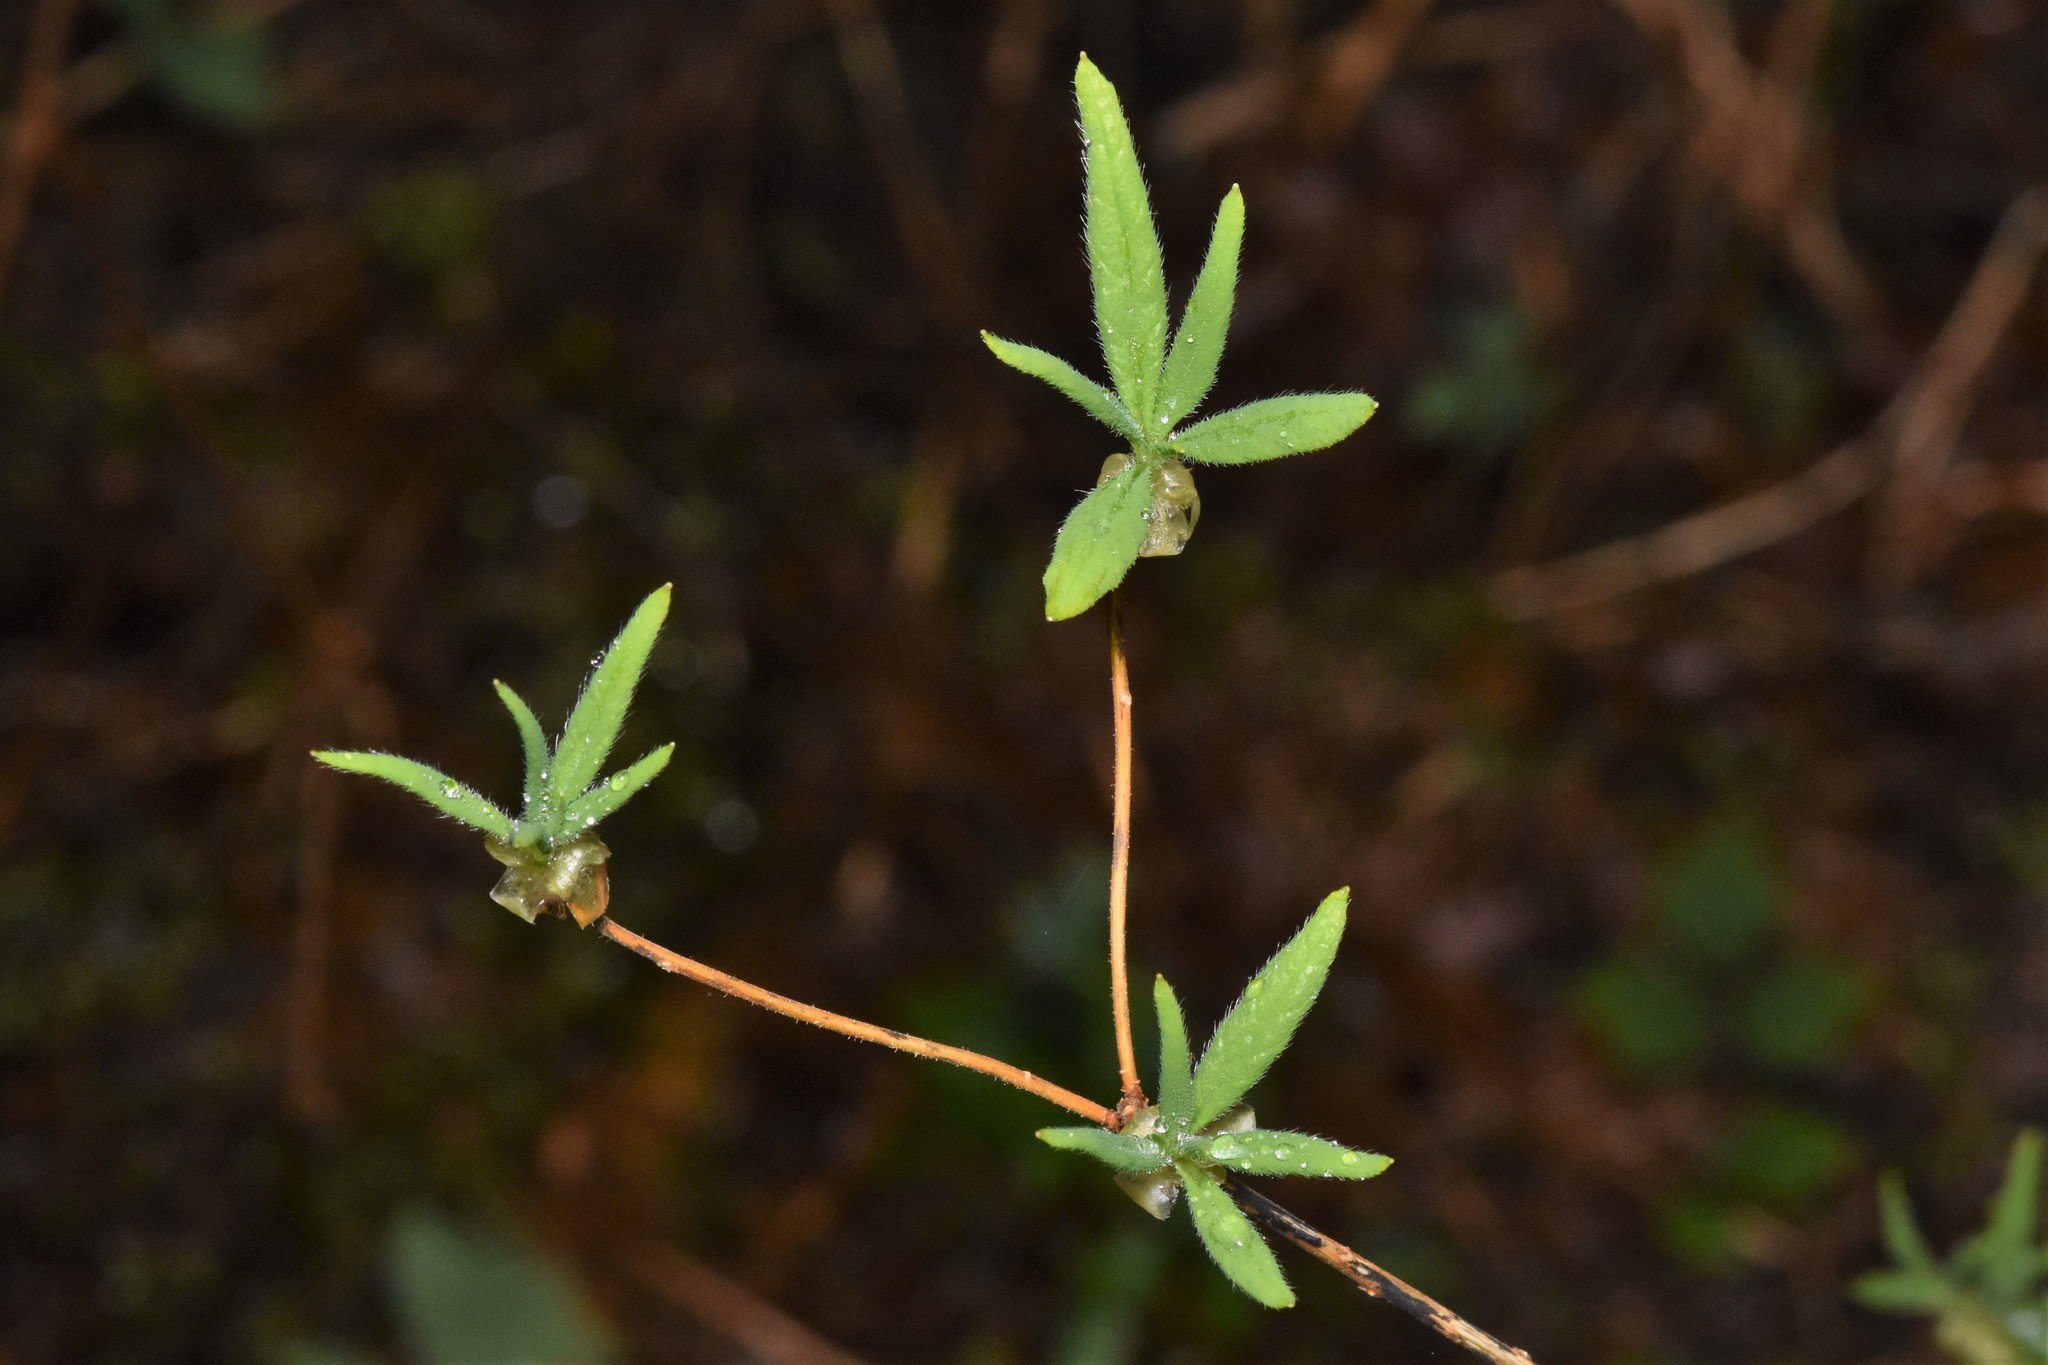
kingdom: Plantae
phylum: Tracheophyta
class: Magnoliopsida
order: Ericales
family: Ericaceae
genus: Rhododendron
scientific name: Rhododendron menziesii
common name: Pacific menziesia
